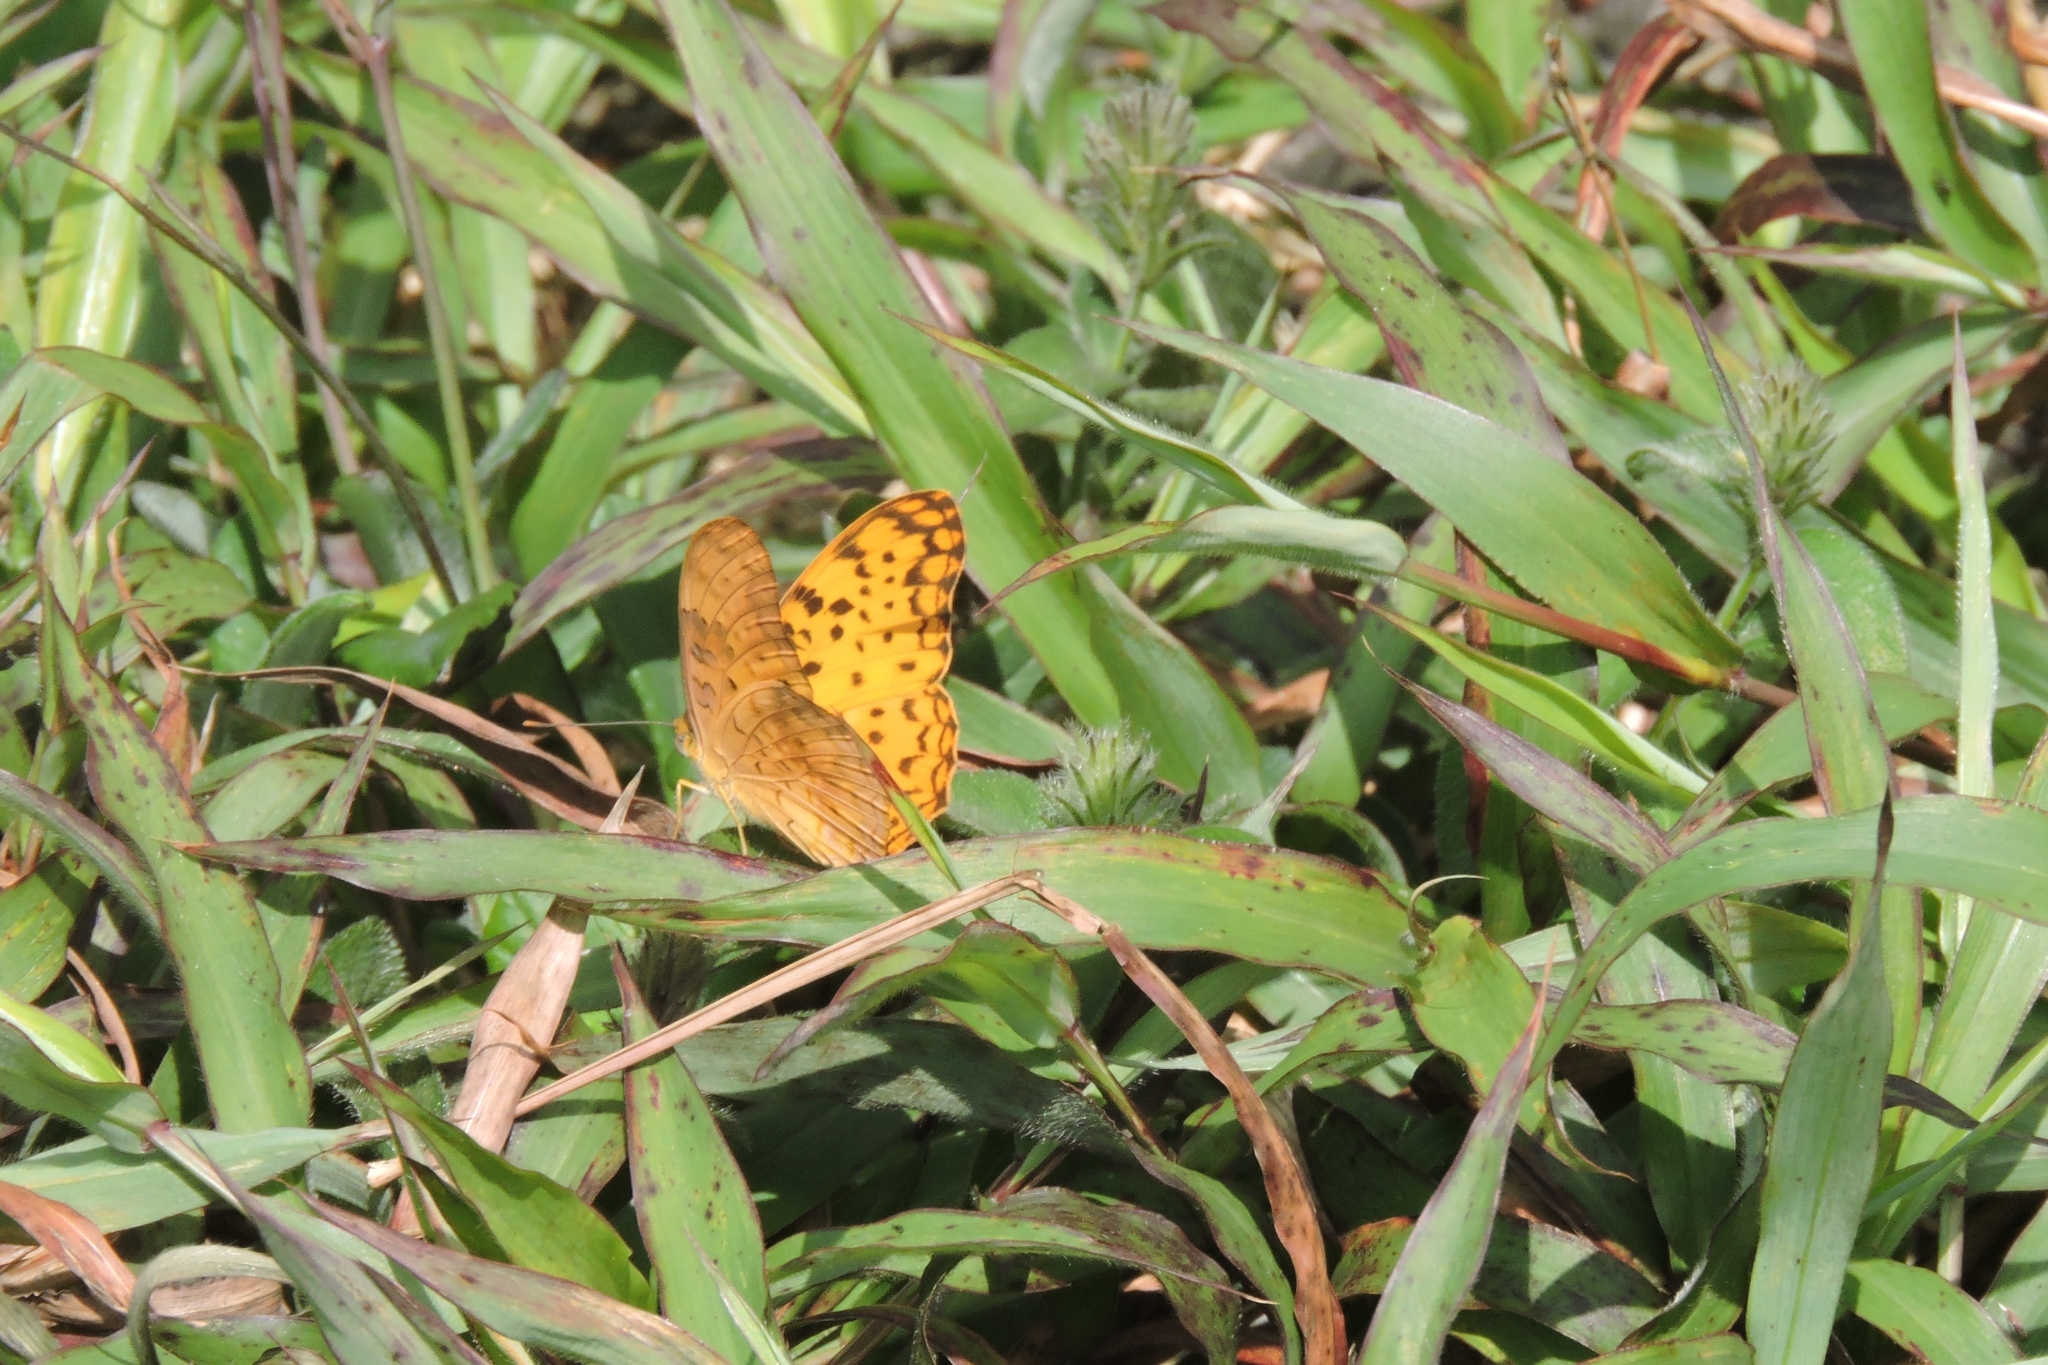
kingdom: Animalia
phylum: Arthropoda
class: Insecta
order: Lepidoptera
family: Nymphalidae
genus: Phalanta
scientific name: Phalanta phalantha
